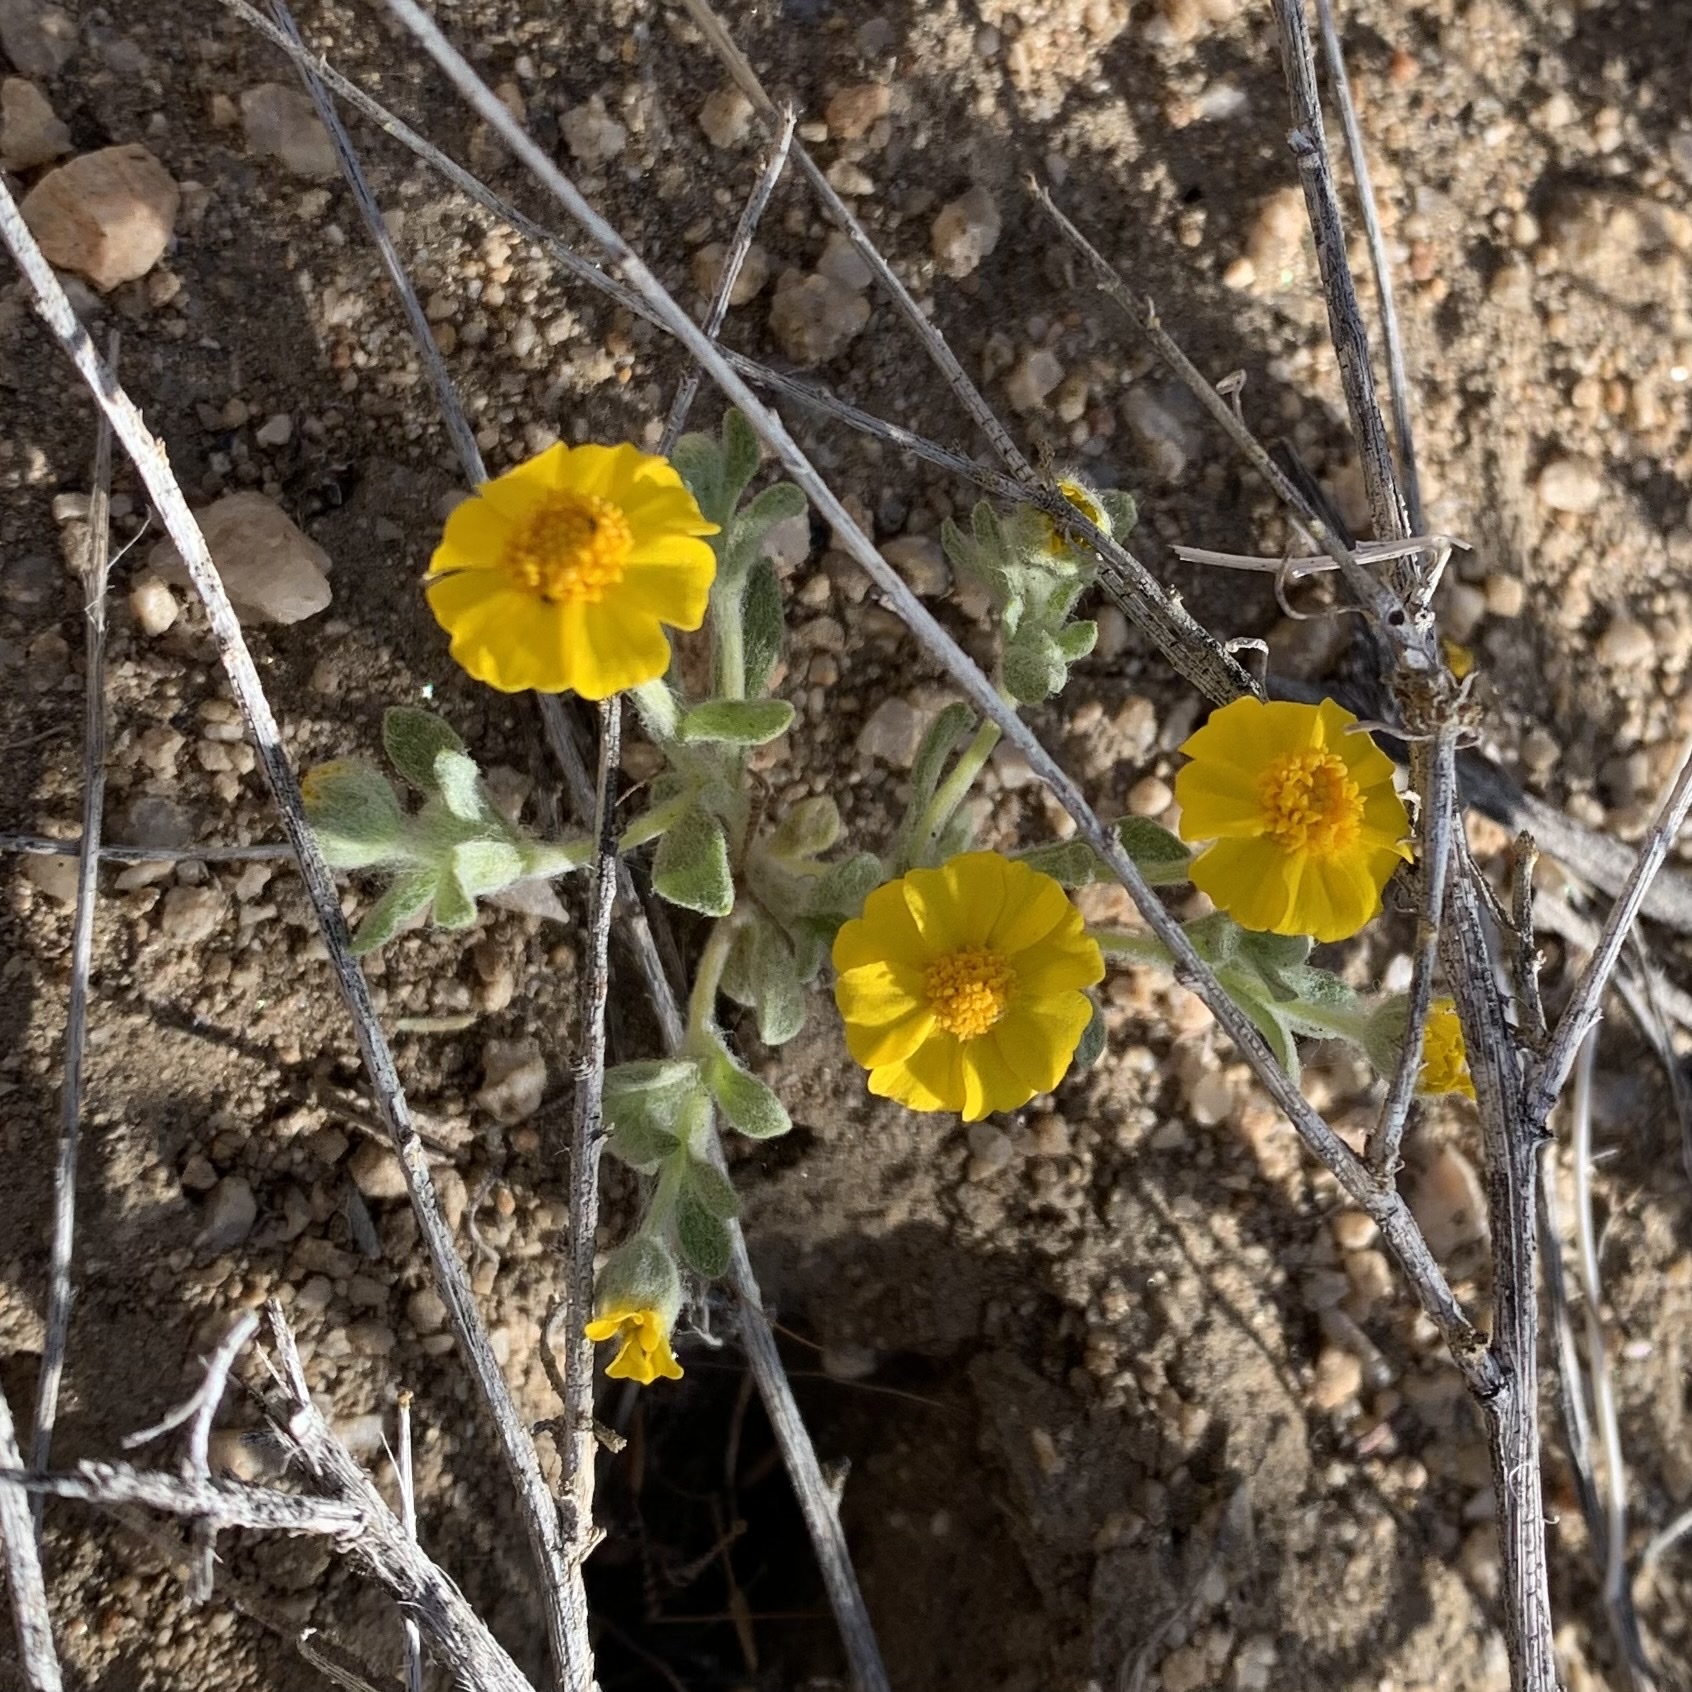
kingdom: Plantae
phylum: Tracheophyta
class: Magnoliopsida
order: Asterales
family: Asteraceae
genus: Eriophyllum
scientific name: Eriophyllum wallacei
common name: Wallace's woolly daisy
